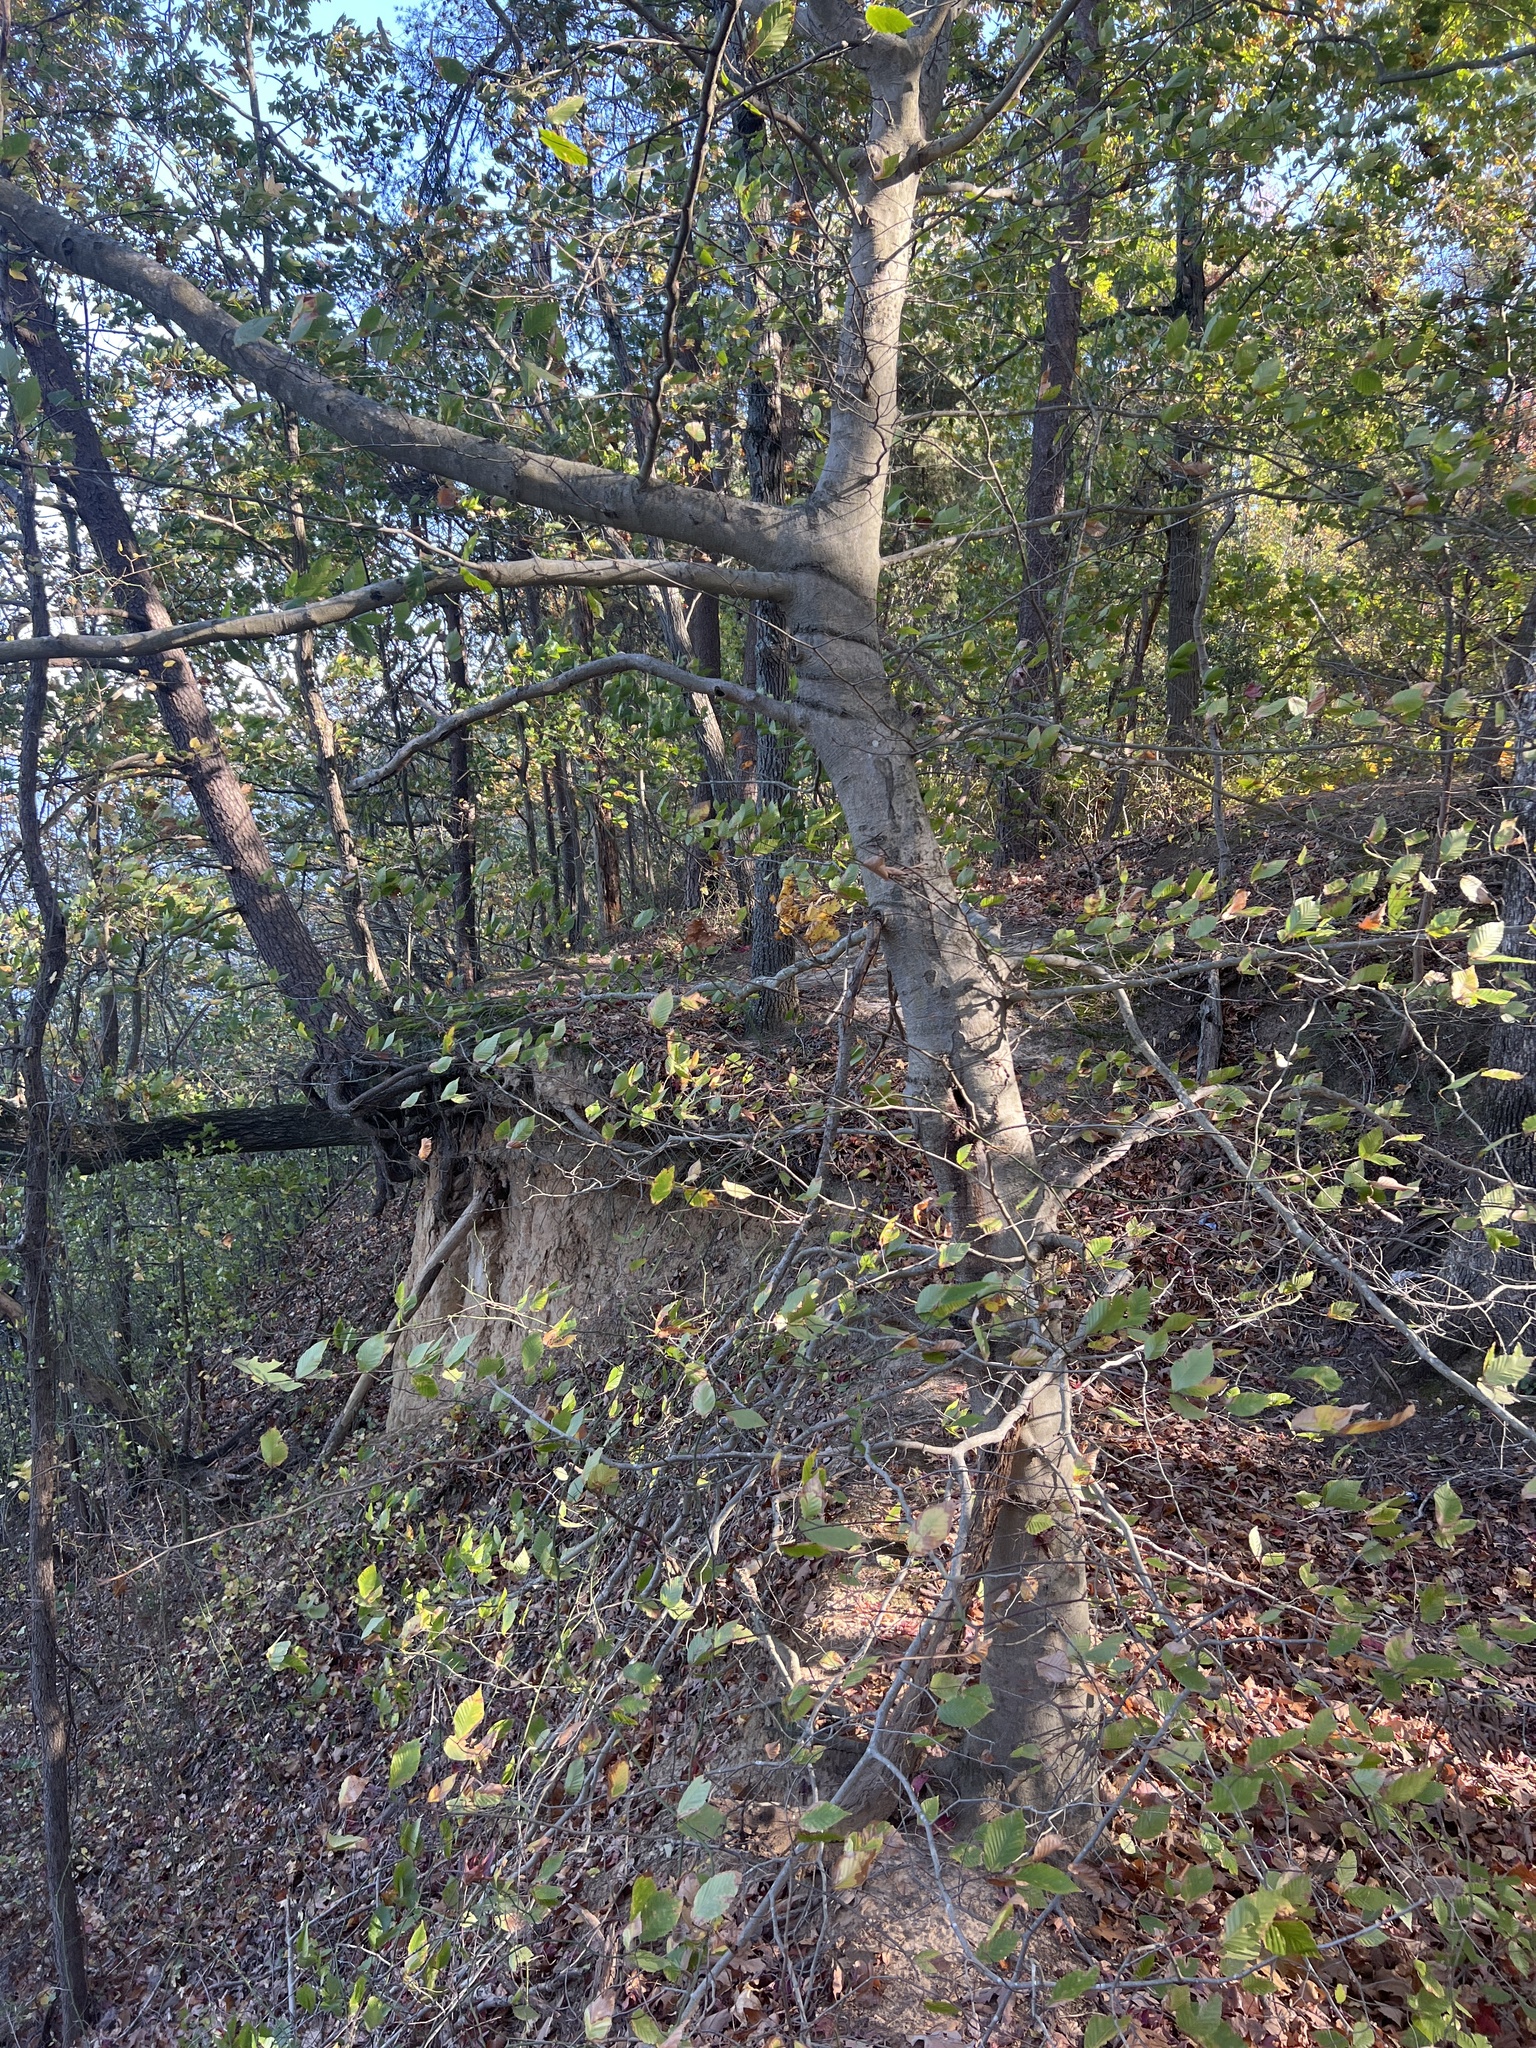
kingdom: Plantae
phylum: Tracheophyta
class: Magnoliopsida
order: Fagales
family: Fagaceae
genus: Fagus
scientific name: Fagus grandifolia
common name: American beech
